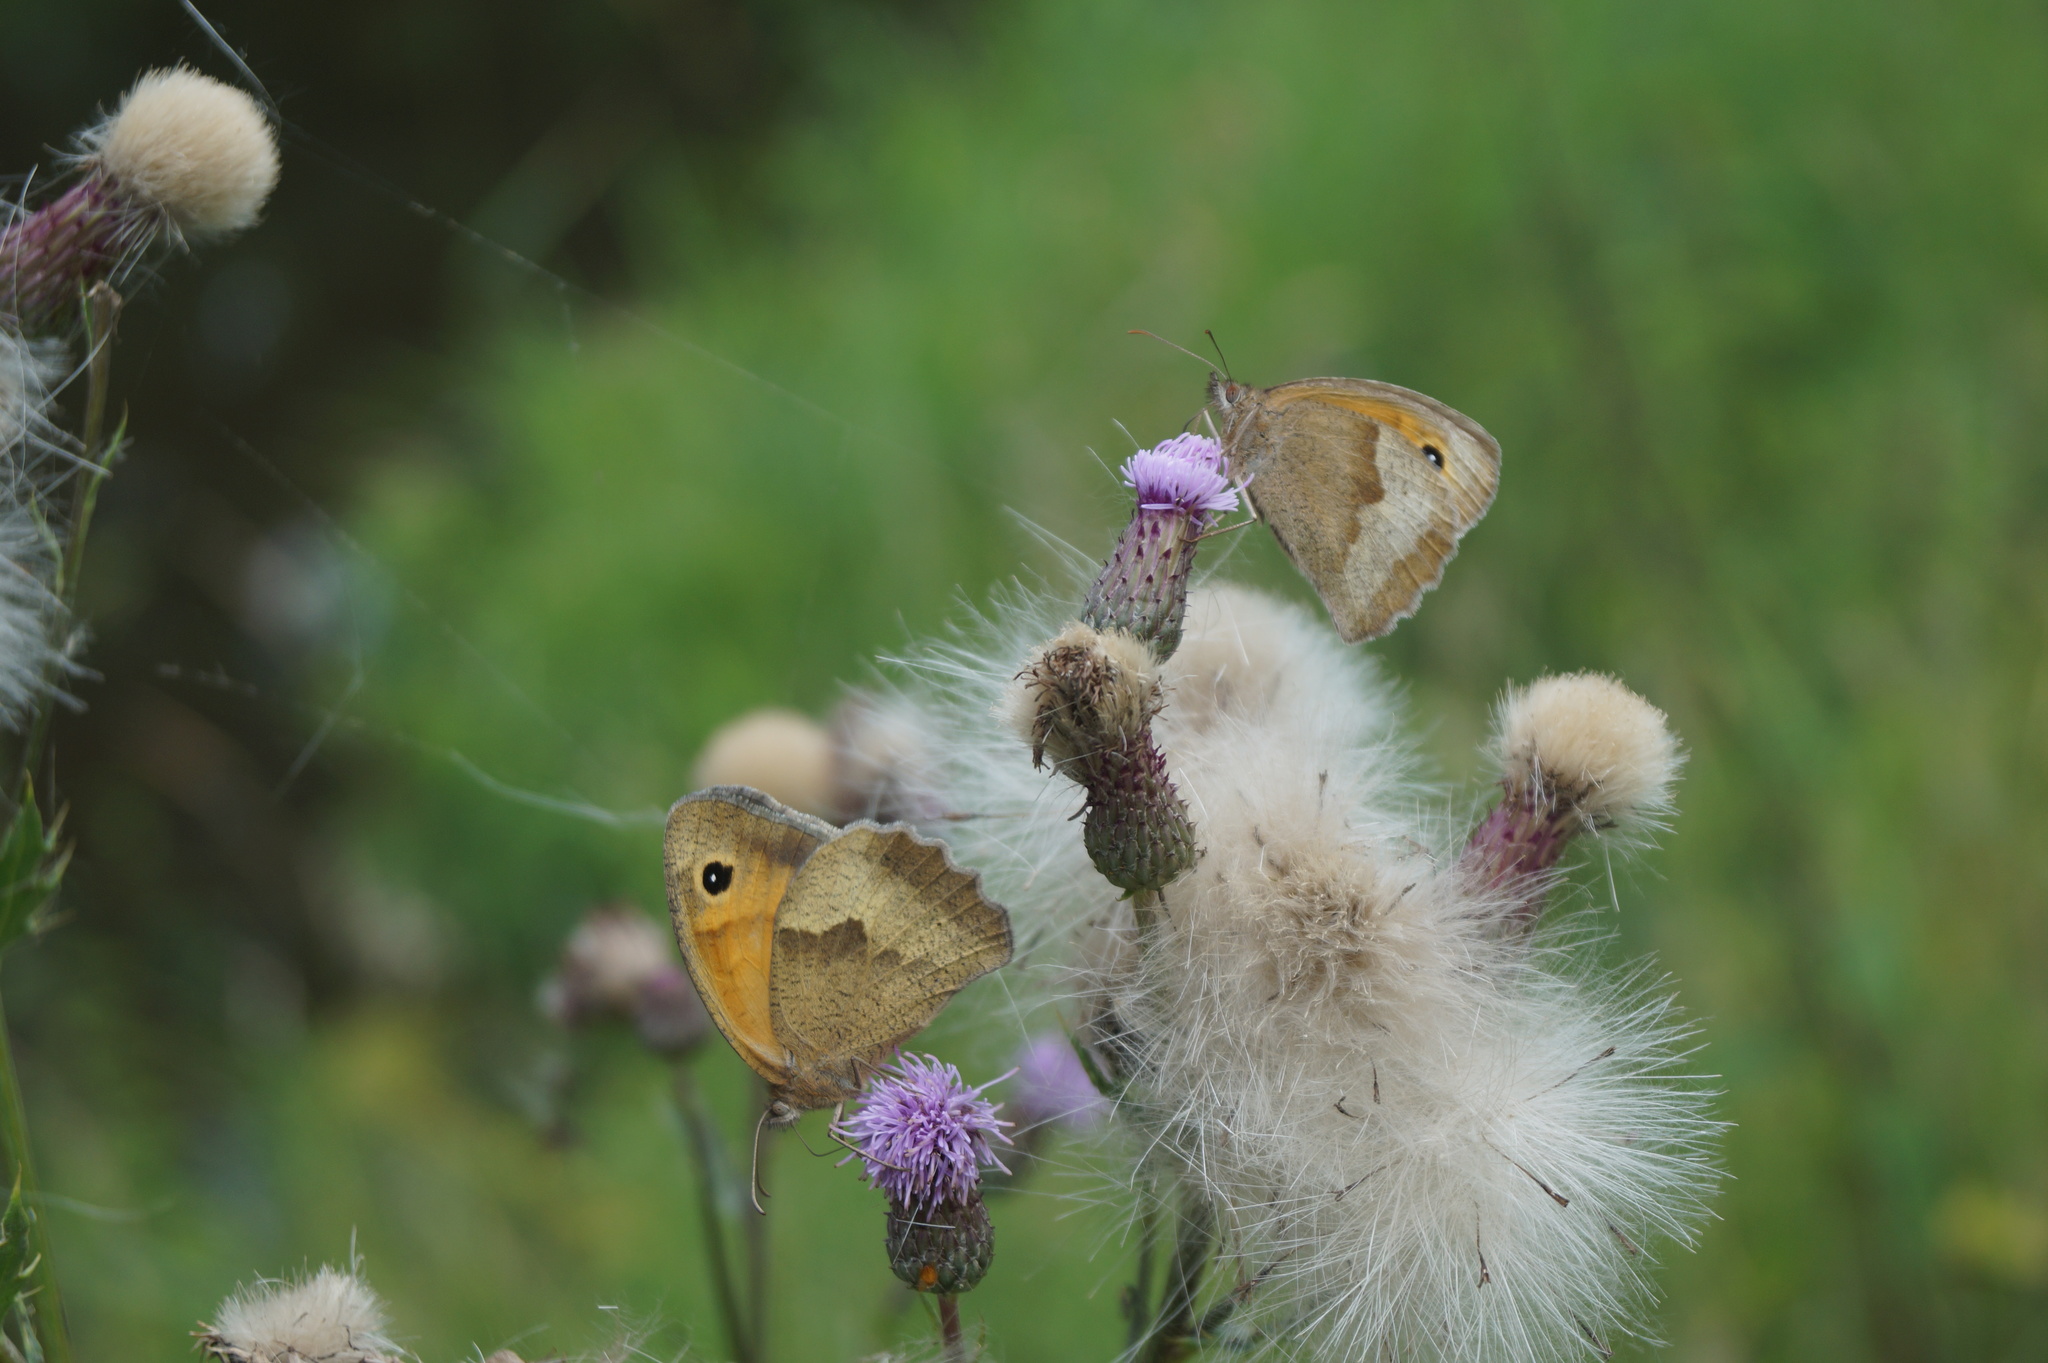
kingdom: Animalia
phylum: Arthropoda
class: Insecta
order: Lepidoptera
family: Nymphalidae
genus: Maniola
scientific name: Maniola jurtina
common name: Meadow brown
